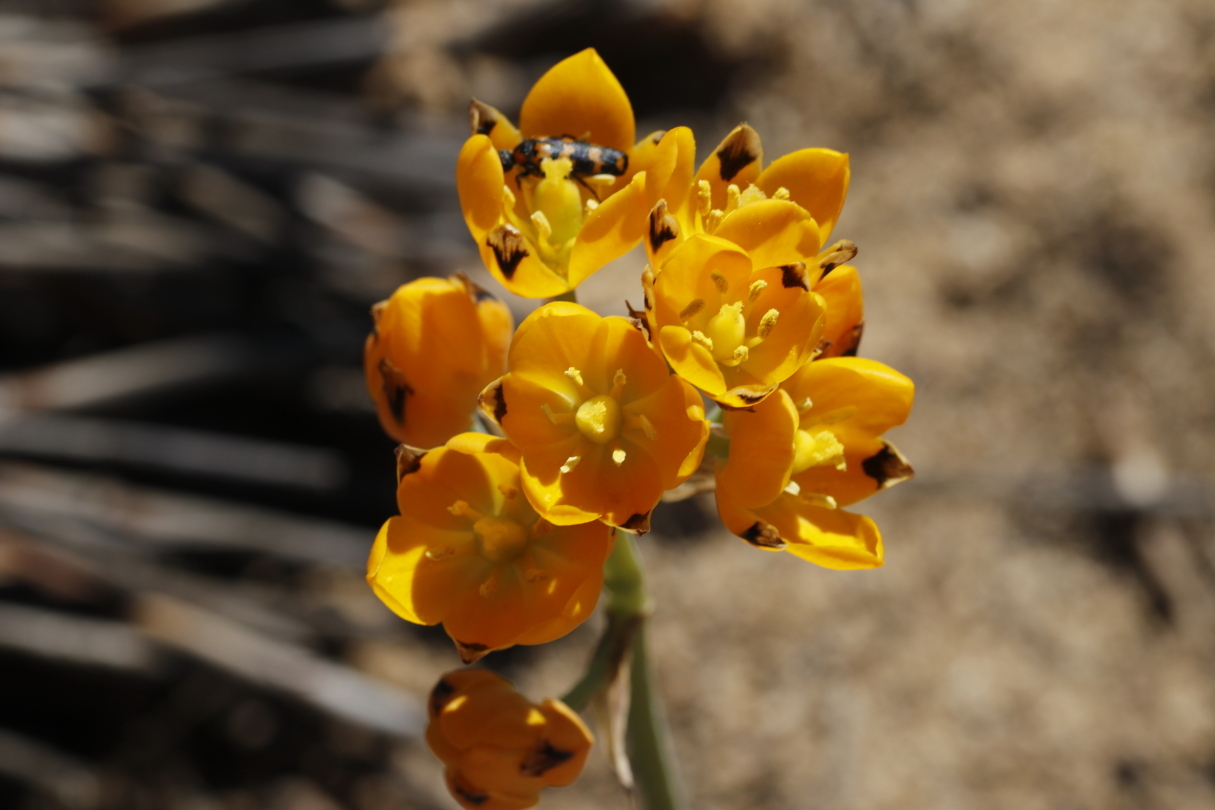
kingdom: Plantae
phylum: Tracheophyta
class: Liliopsida
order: Asparagales
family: Asparagaceae
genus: Ornithogalum
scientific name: Ornithogalum maculatum
